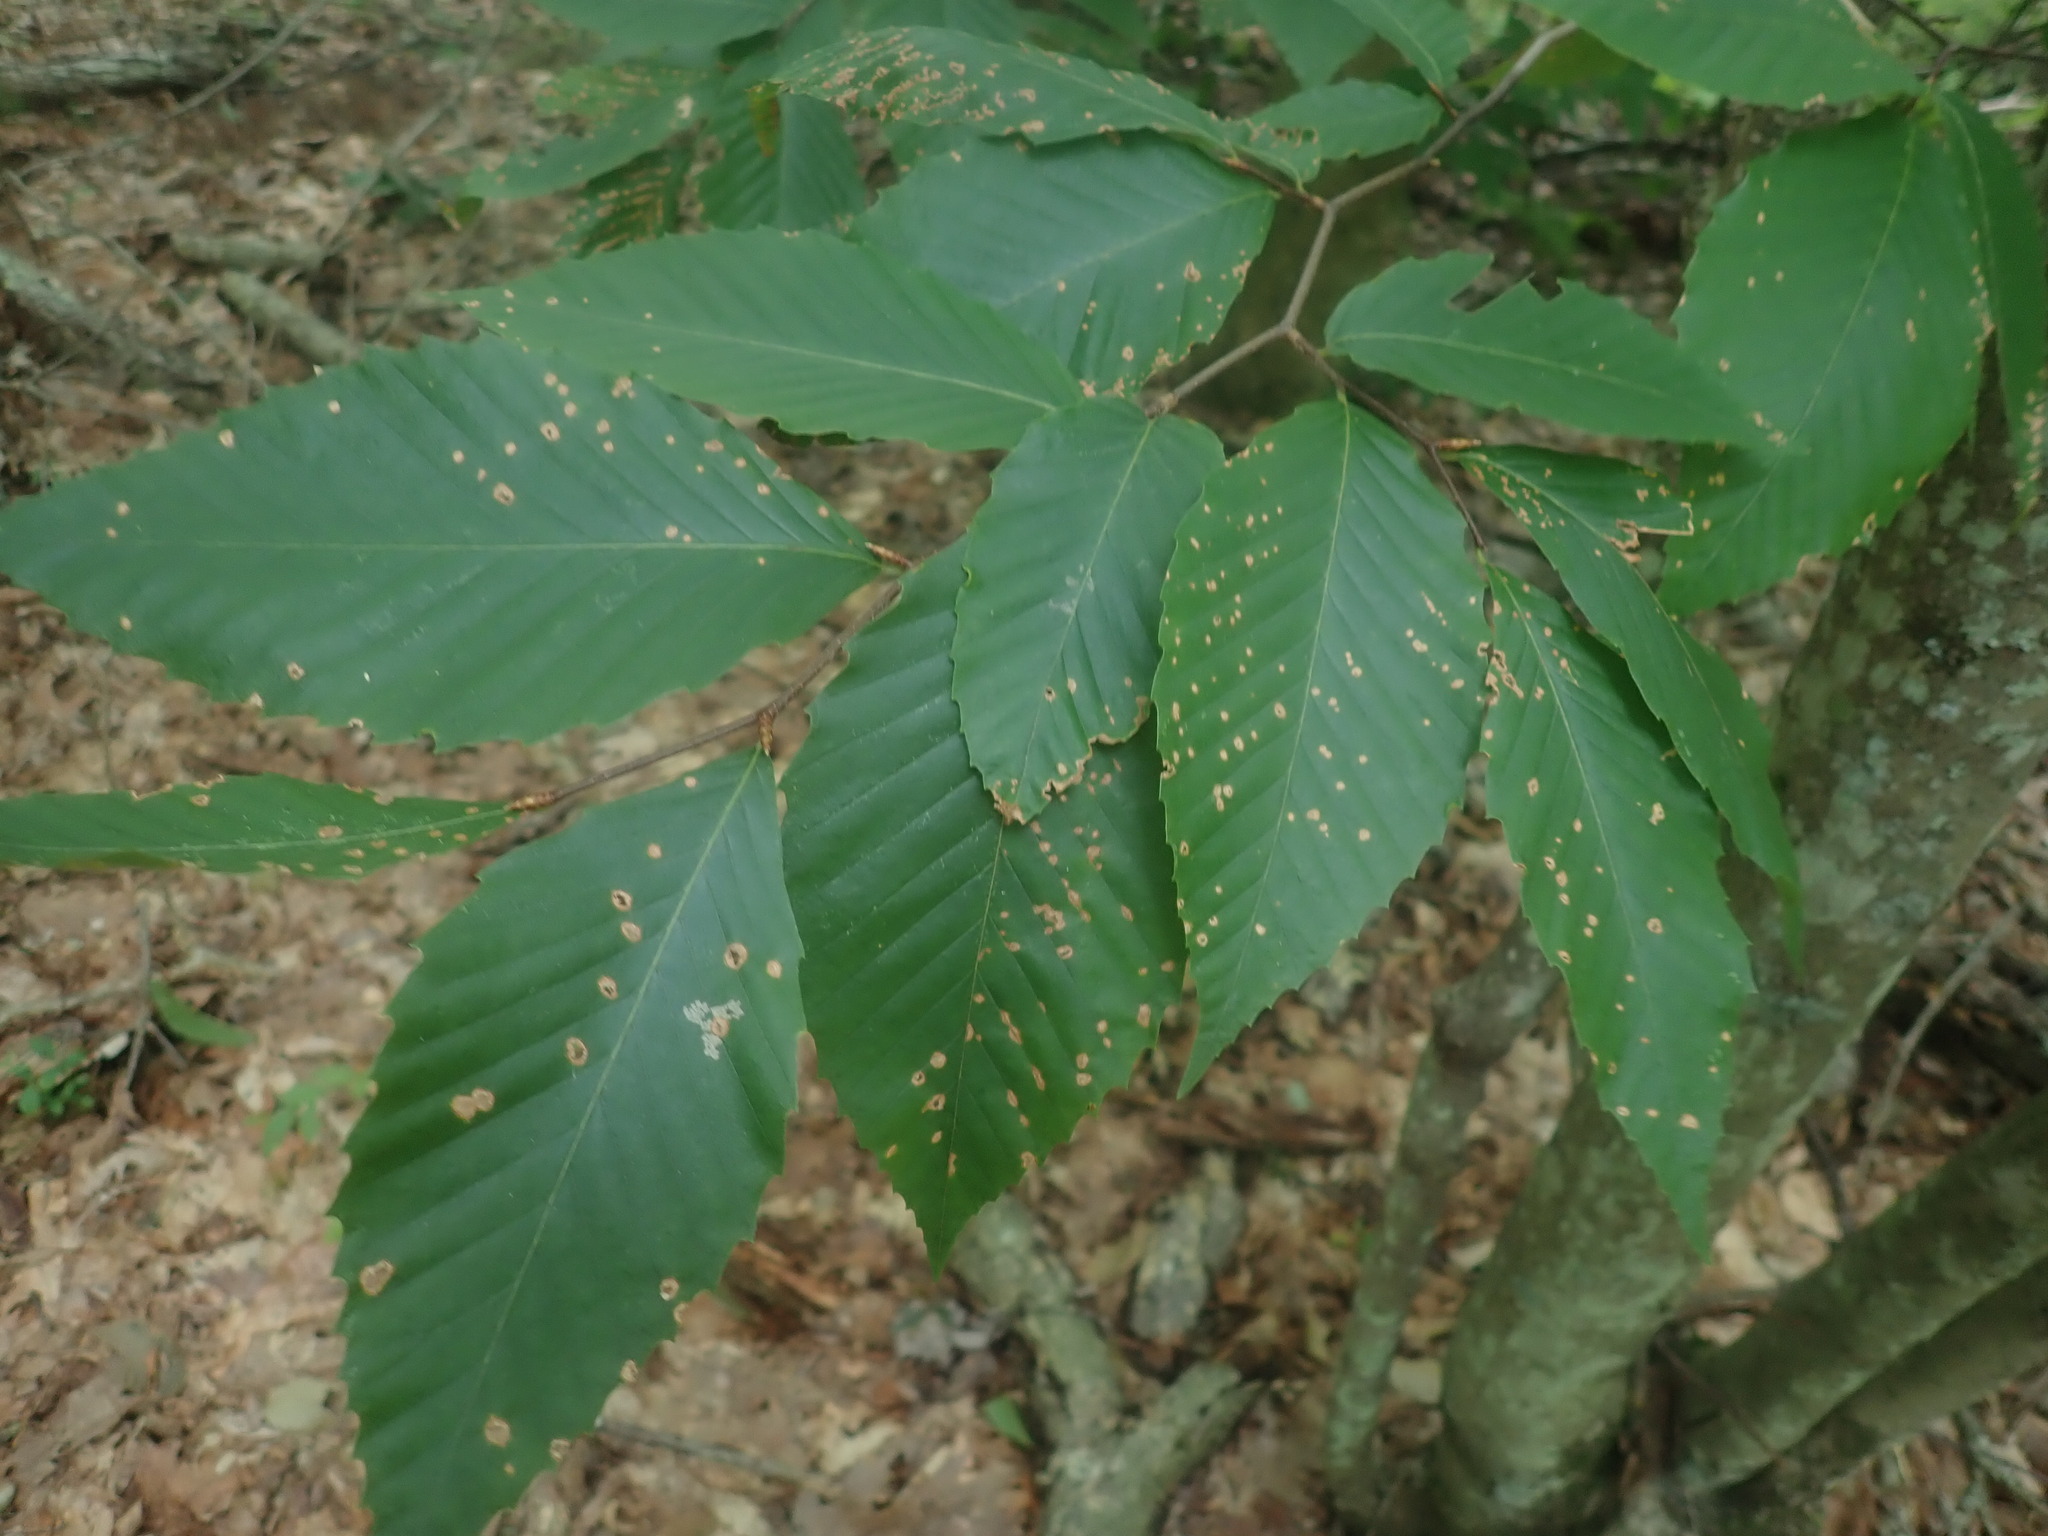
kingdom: Plantae
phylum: Tracheophyta
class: Magnoliopsida
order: Fagales
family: Fagaceae
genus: Fagus
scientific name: Fagus grandifolia
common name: American beech
